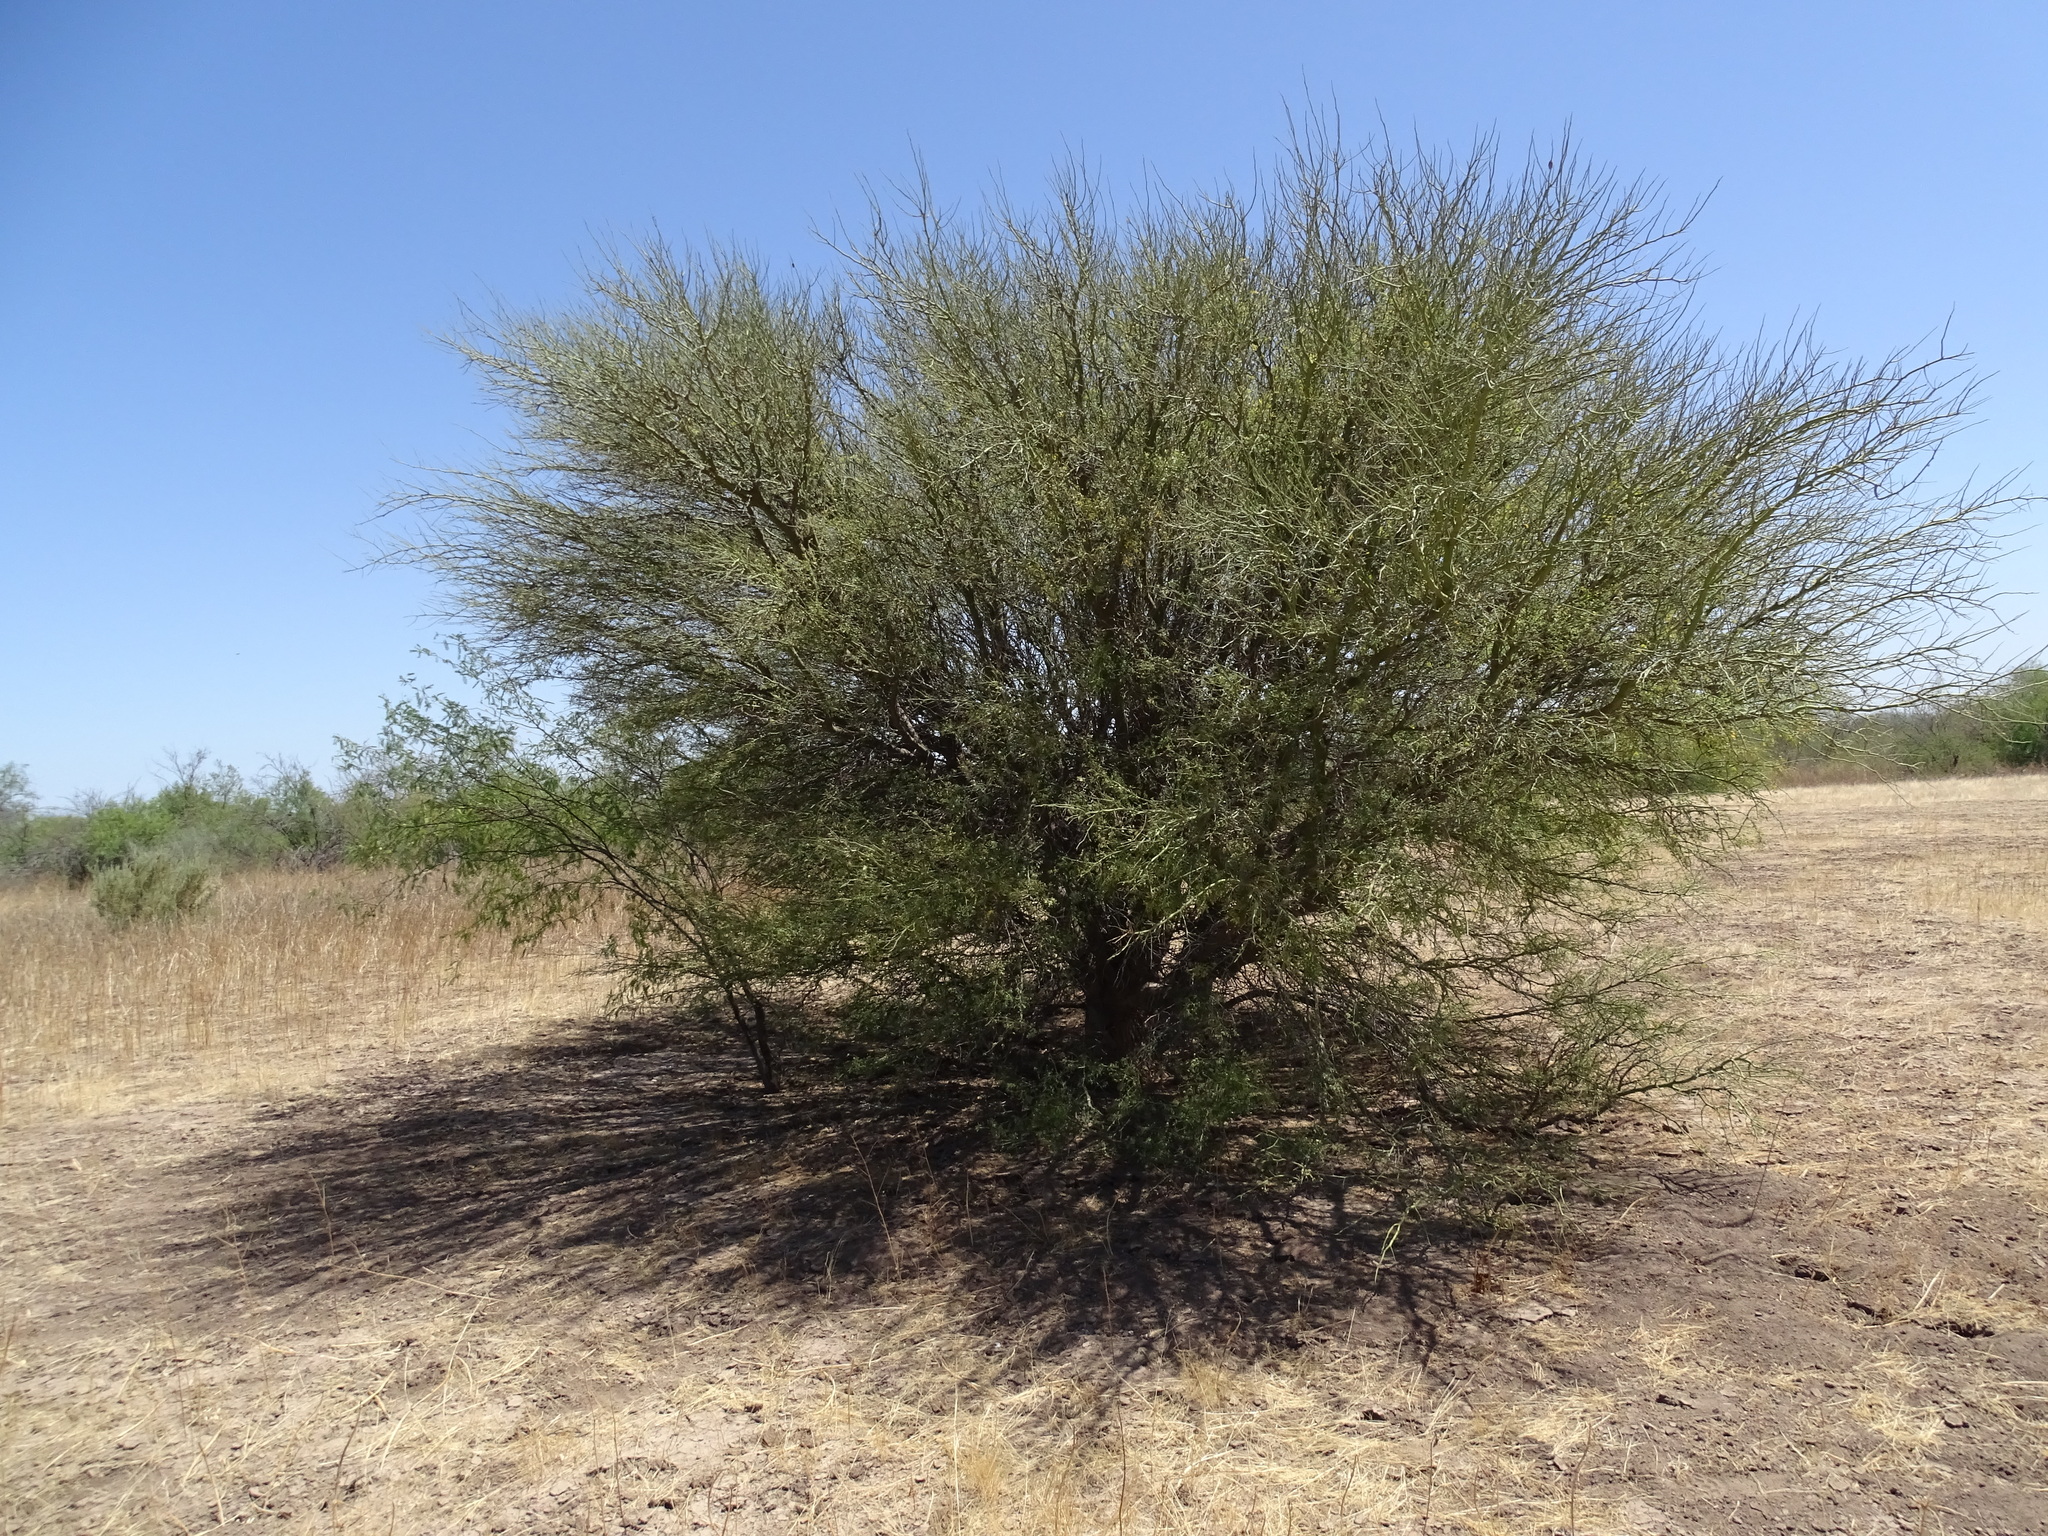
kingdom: Plantae
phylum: Tracheophyta
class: Magnoliopsida
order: Fabales
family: Fabaceae
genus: Parkinsonia
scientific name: Parkinsonia florida
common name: Blue paloverde
